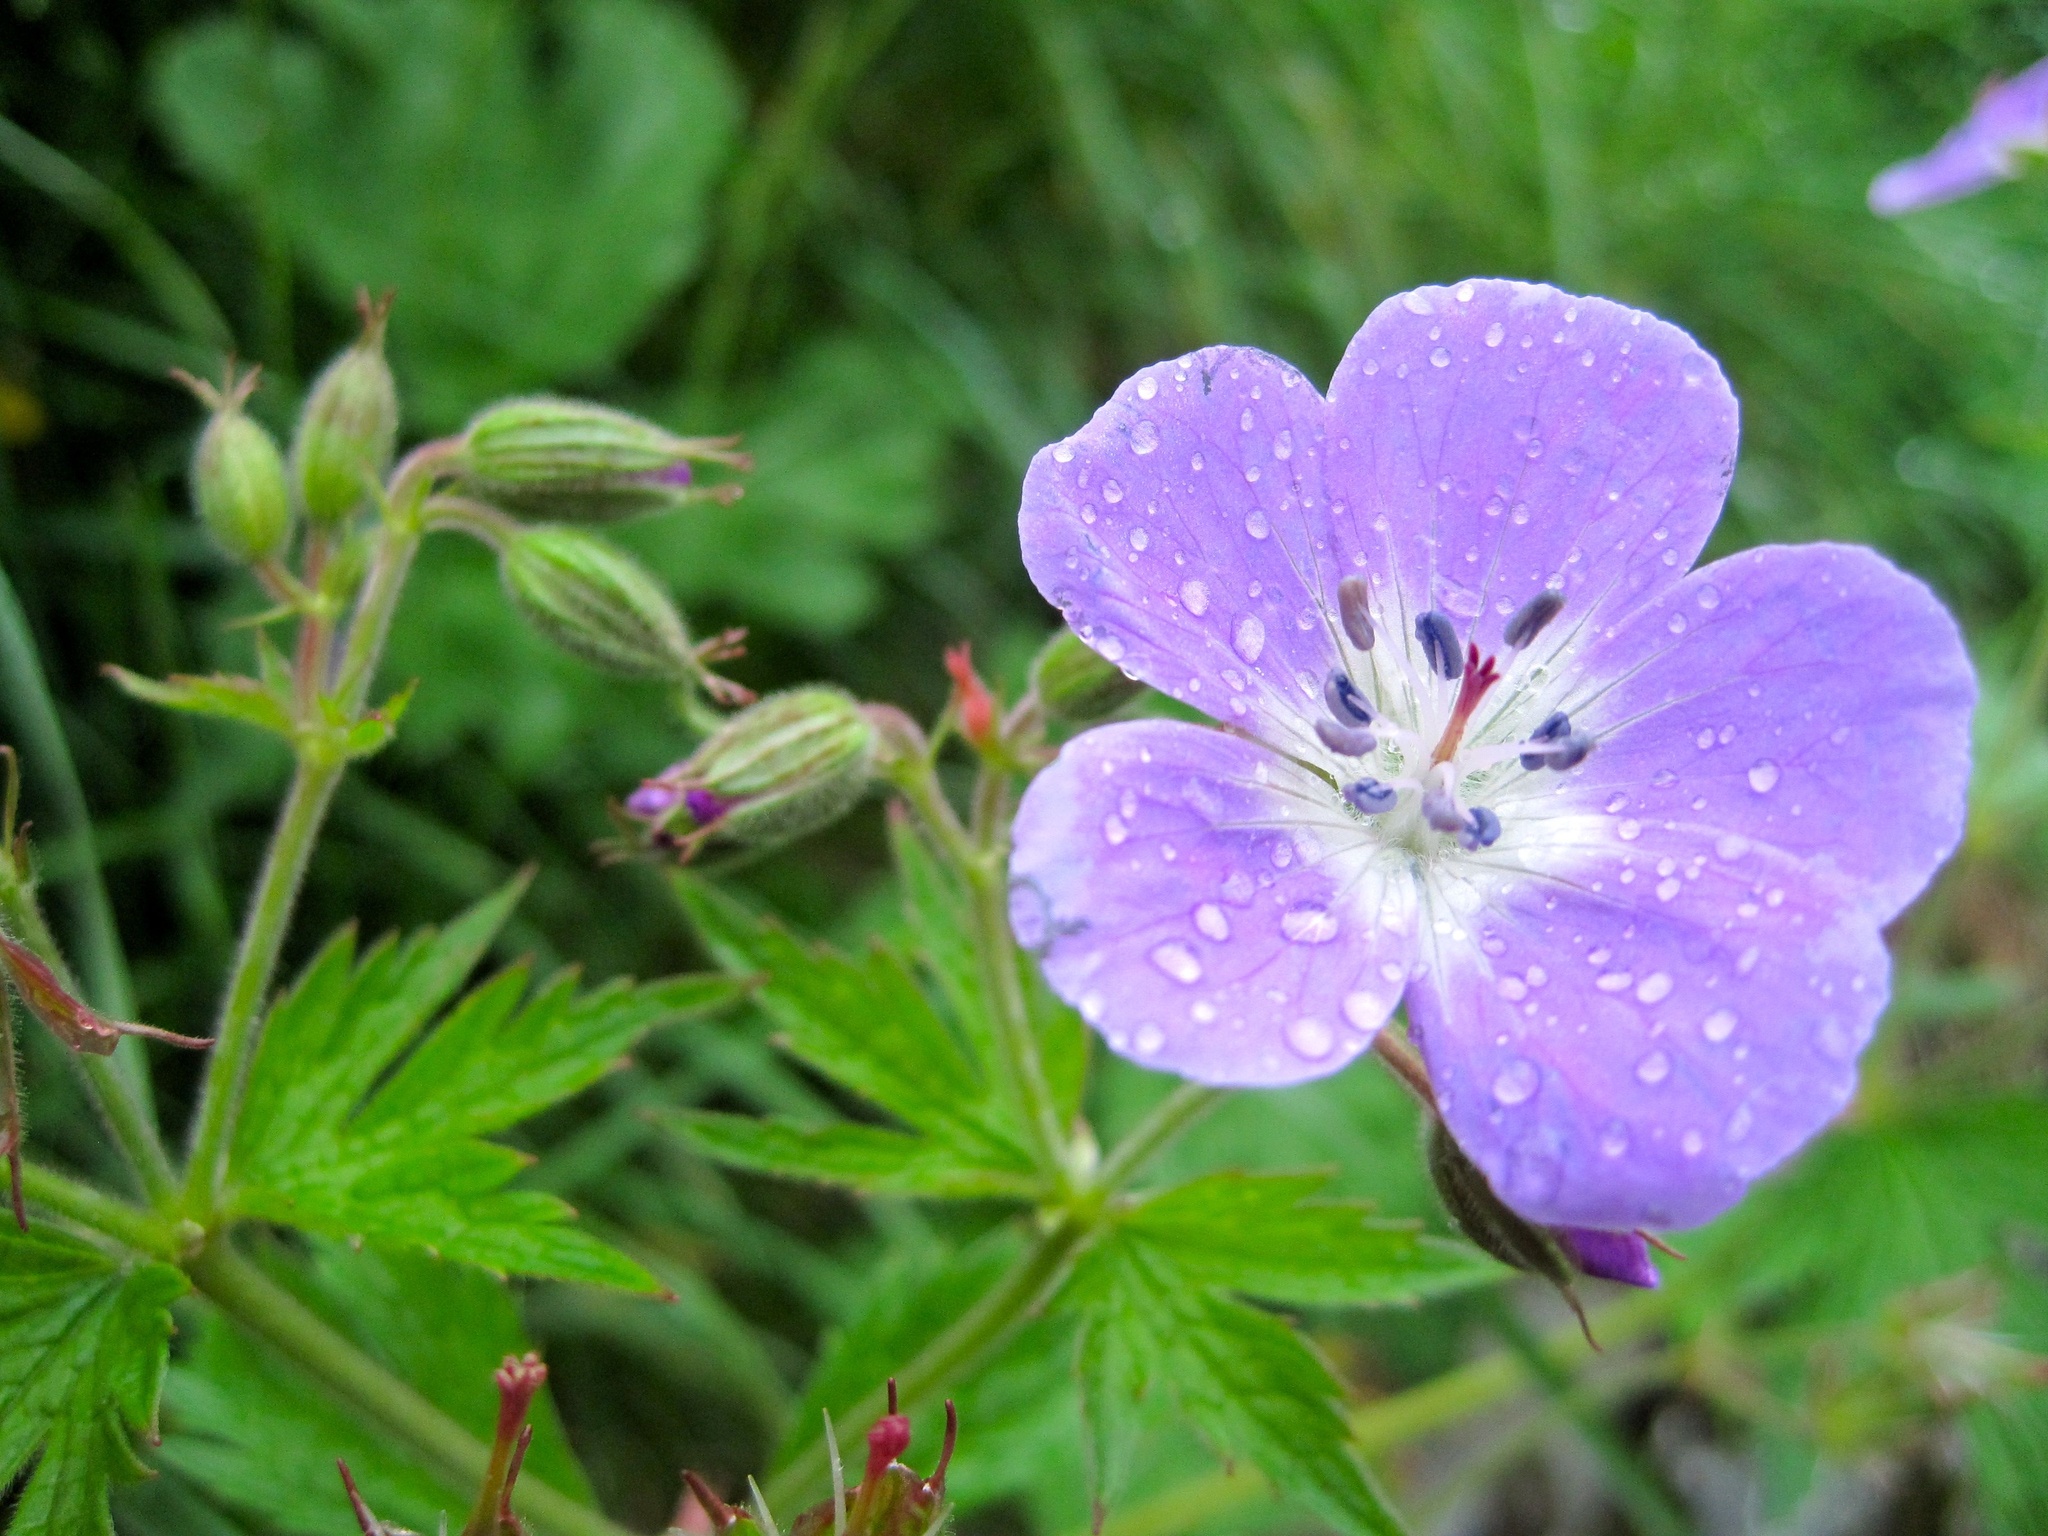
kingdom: Plantae
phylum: Tracheophyta
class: Magnoliopsida
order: Geraniales
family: Geraniaceae
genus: Geranium
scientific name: Geranium sylvaticum
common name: Wood crane's-bill
